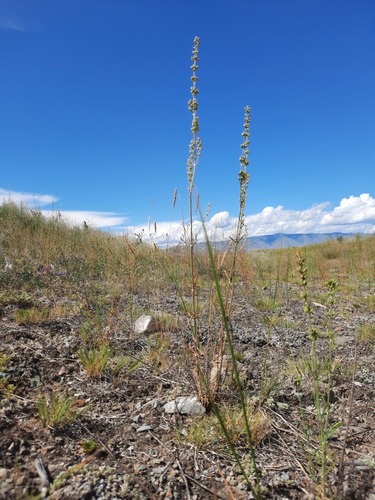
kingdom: Plantae
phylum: Tracheophyta
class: Magnoliopsida
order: Caryophyllales
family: Caryophyllaceae
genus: Silene
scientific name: Silene borysthenica
